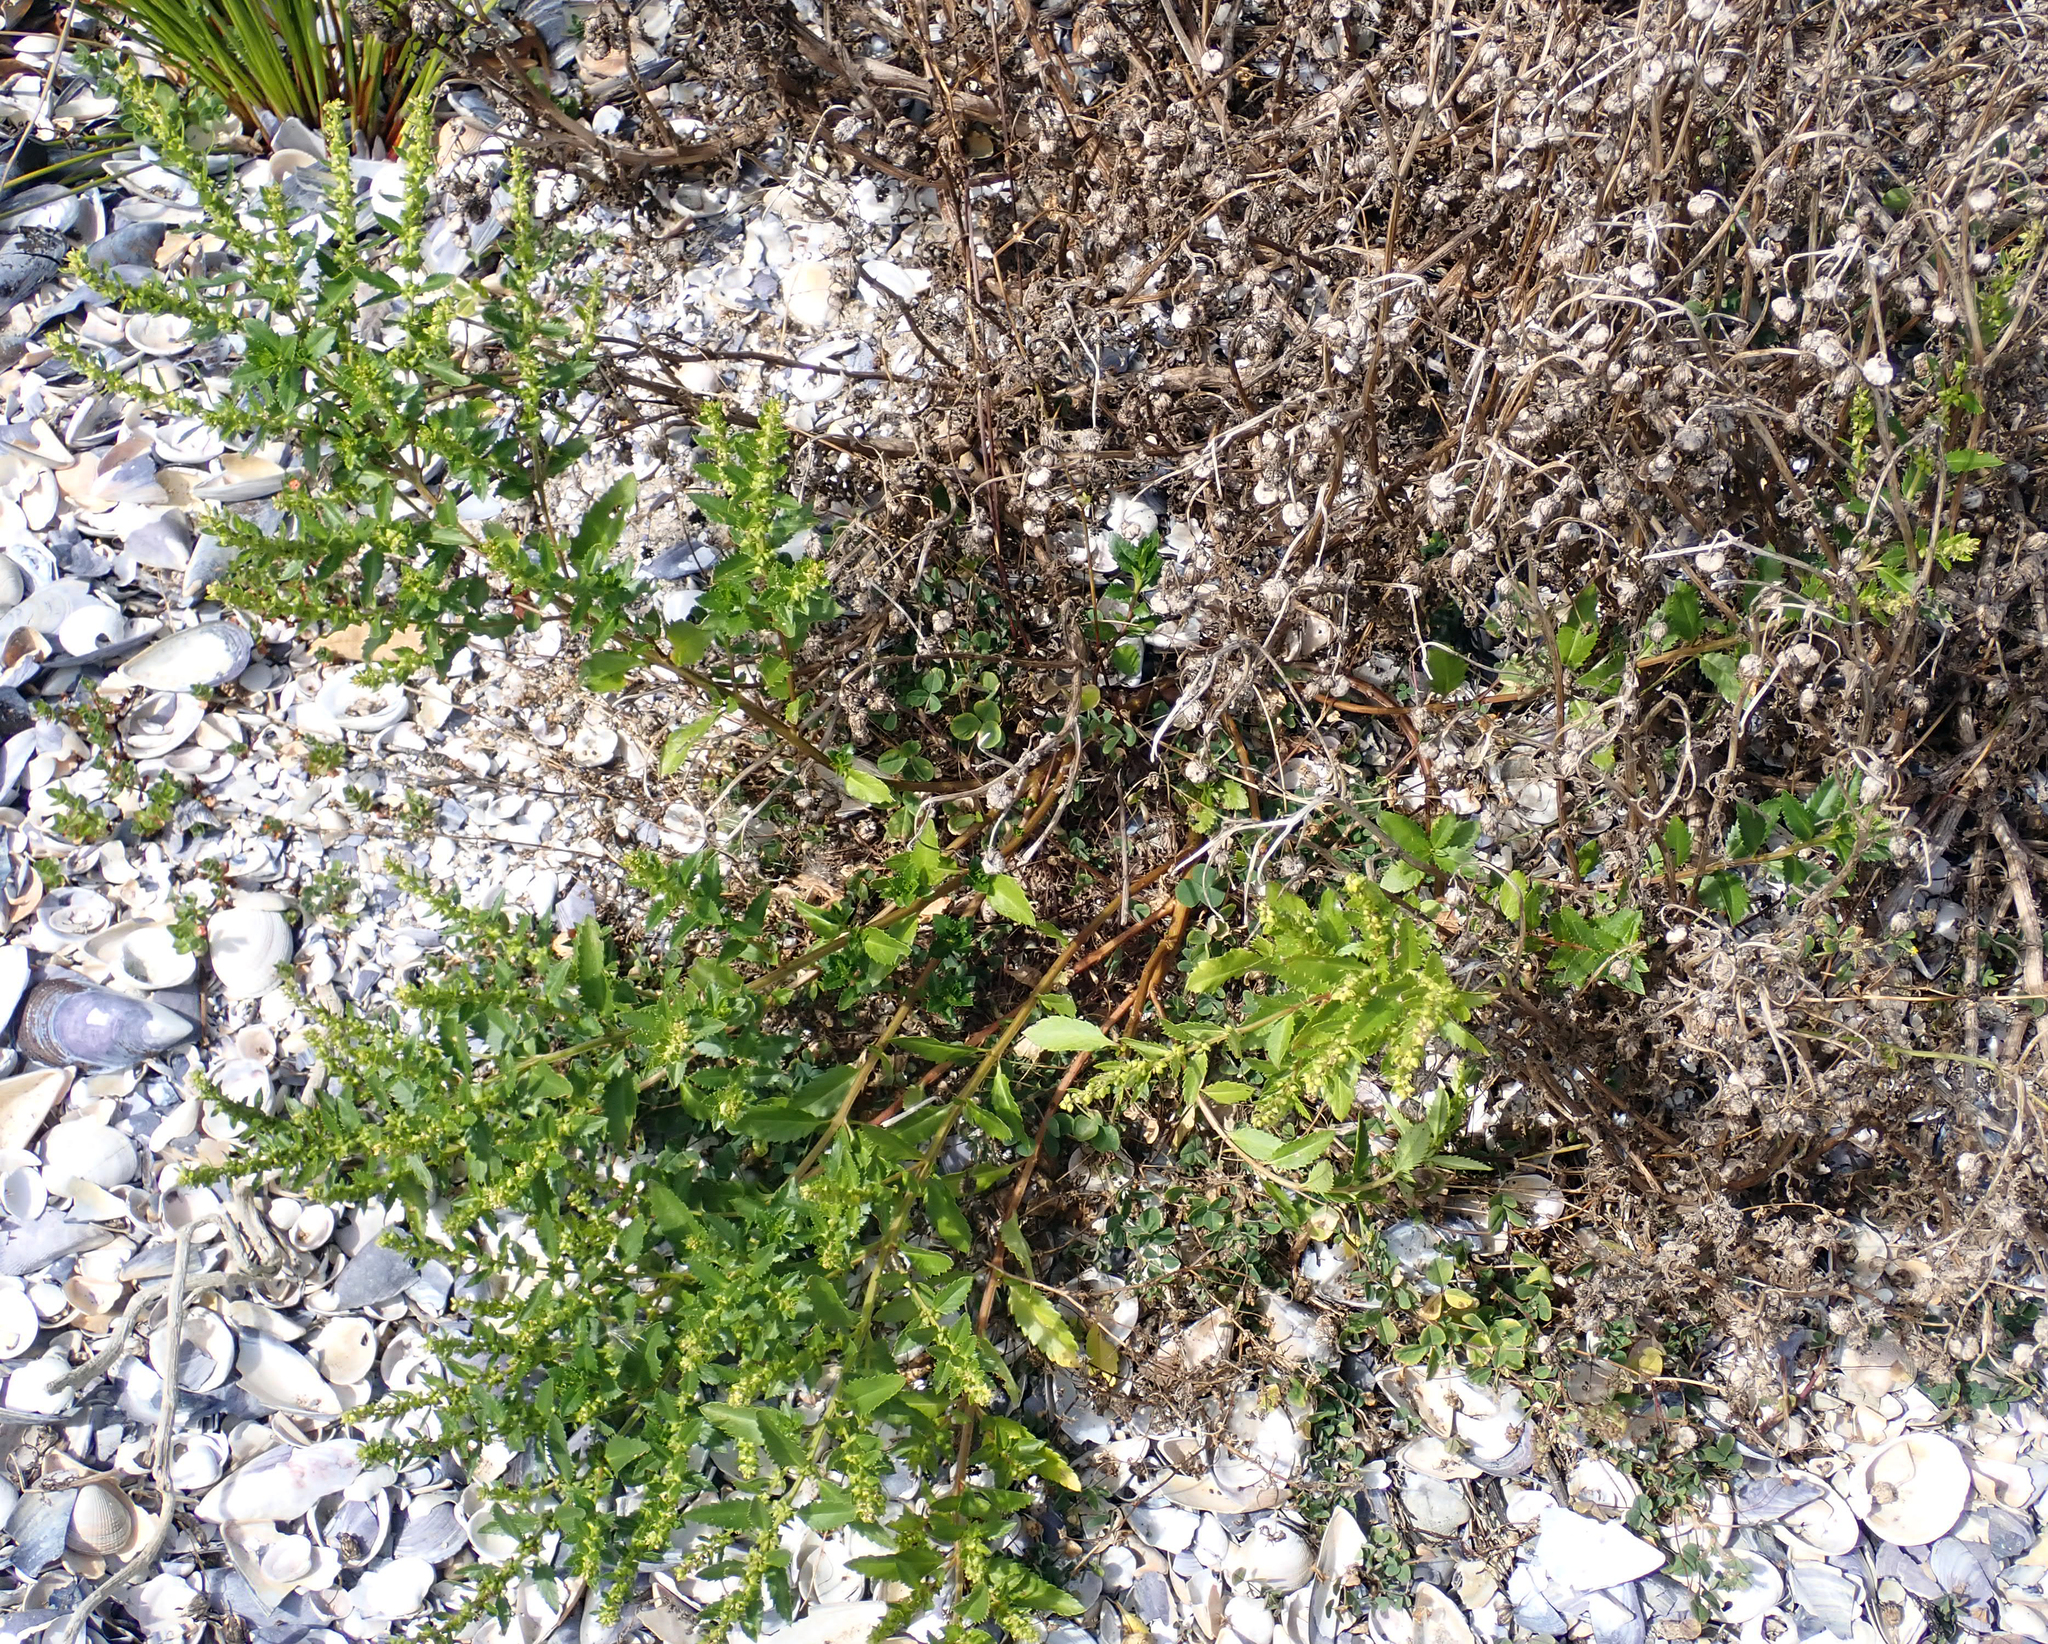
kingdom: Plantae
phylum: Tracheophyta
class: Magnoliopsida
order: Saxifragales
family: Haloragaceae
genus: Haloragis
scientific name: Haloragis erecta
